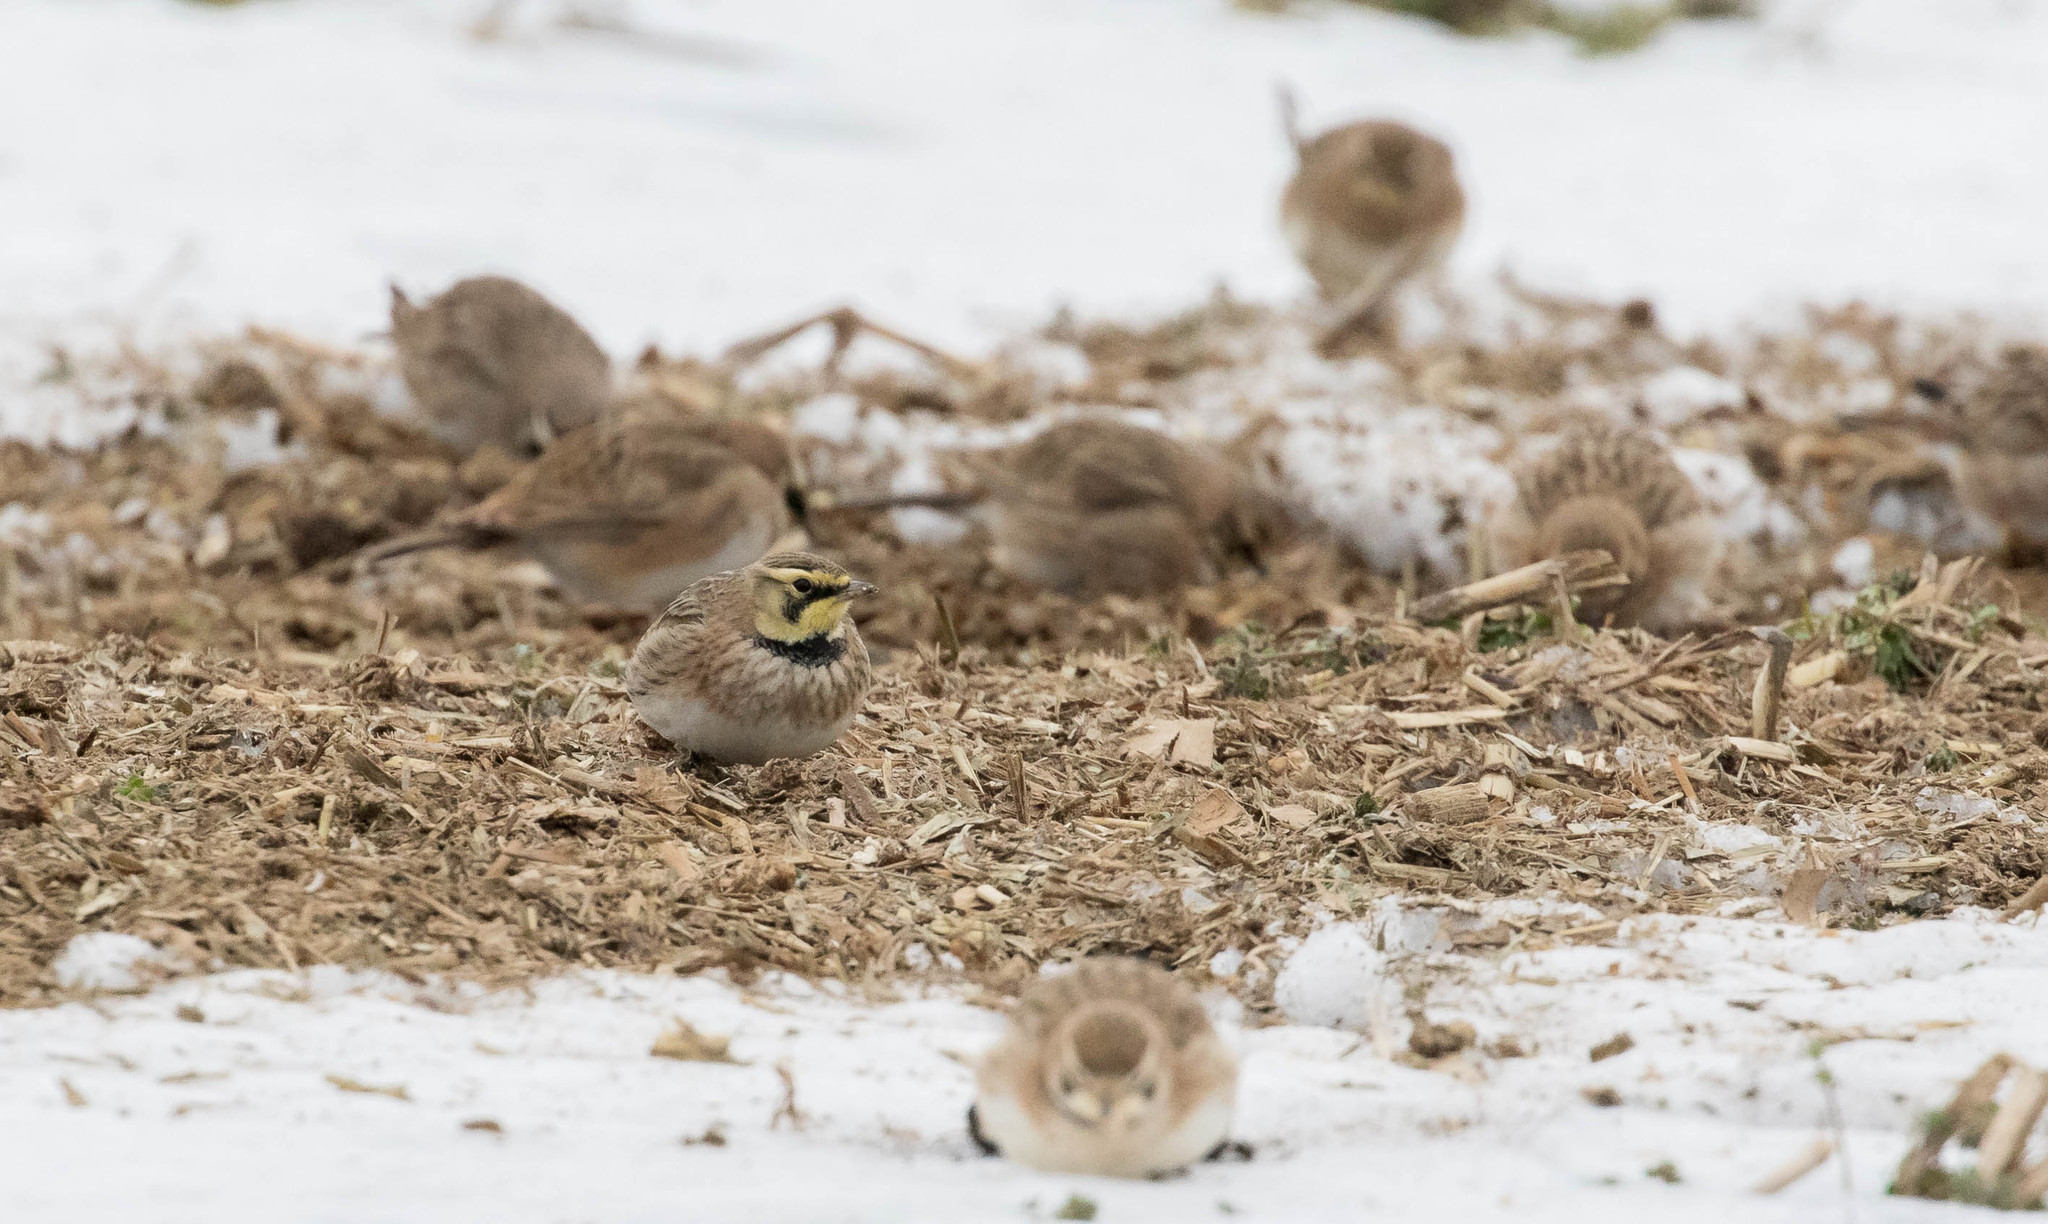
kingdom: Animalia
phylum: Chordata
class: Aves
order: Passeriformes
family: Alaudidae
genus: Eremophila
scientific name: Eremophila alpestris
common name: Horned lark
